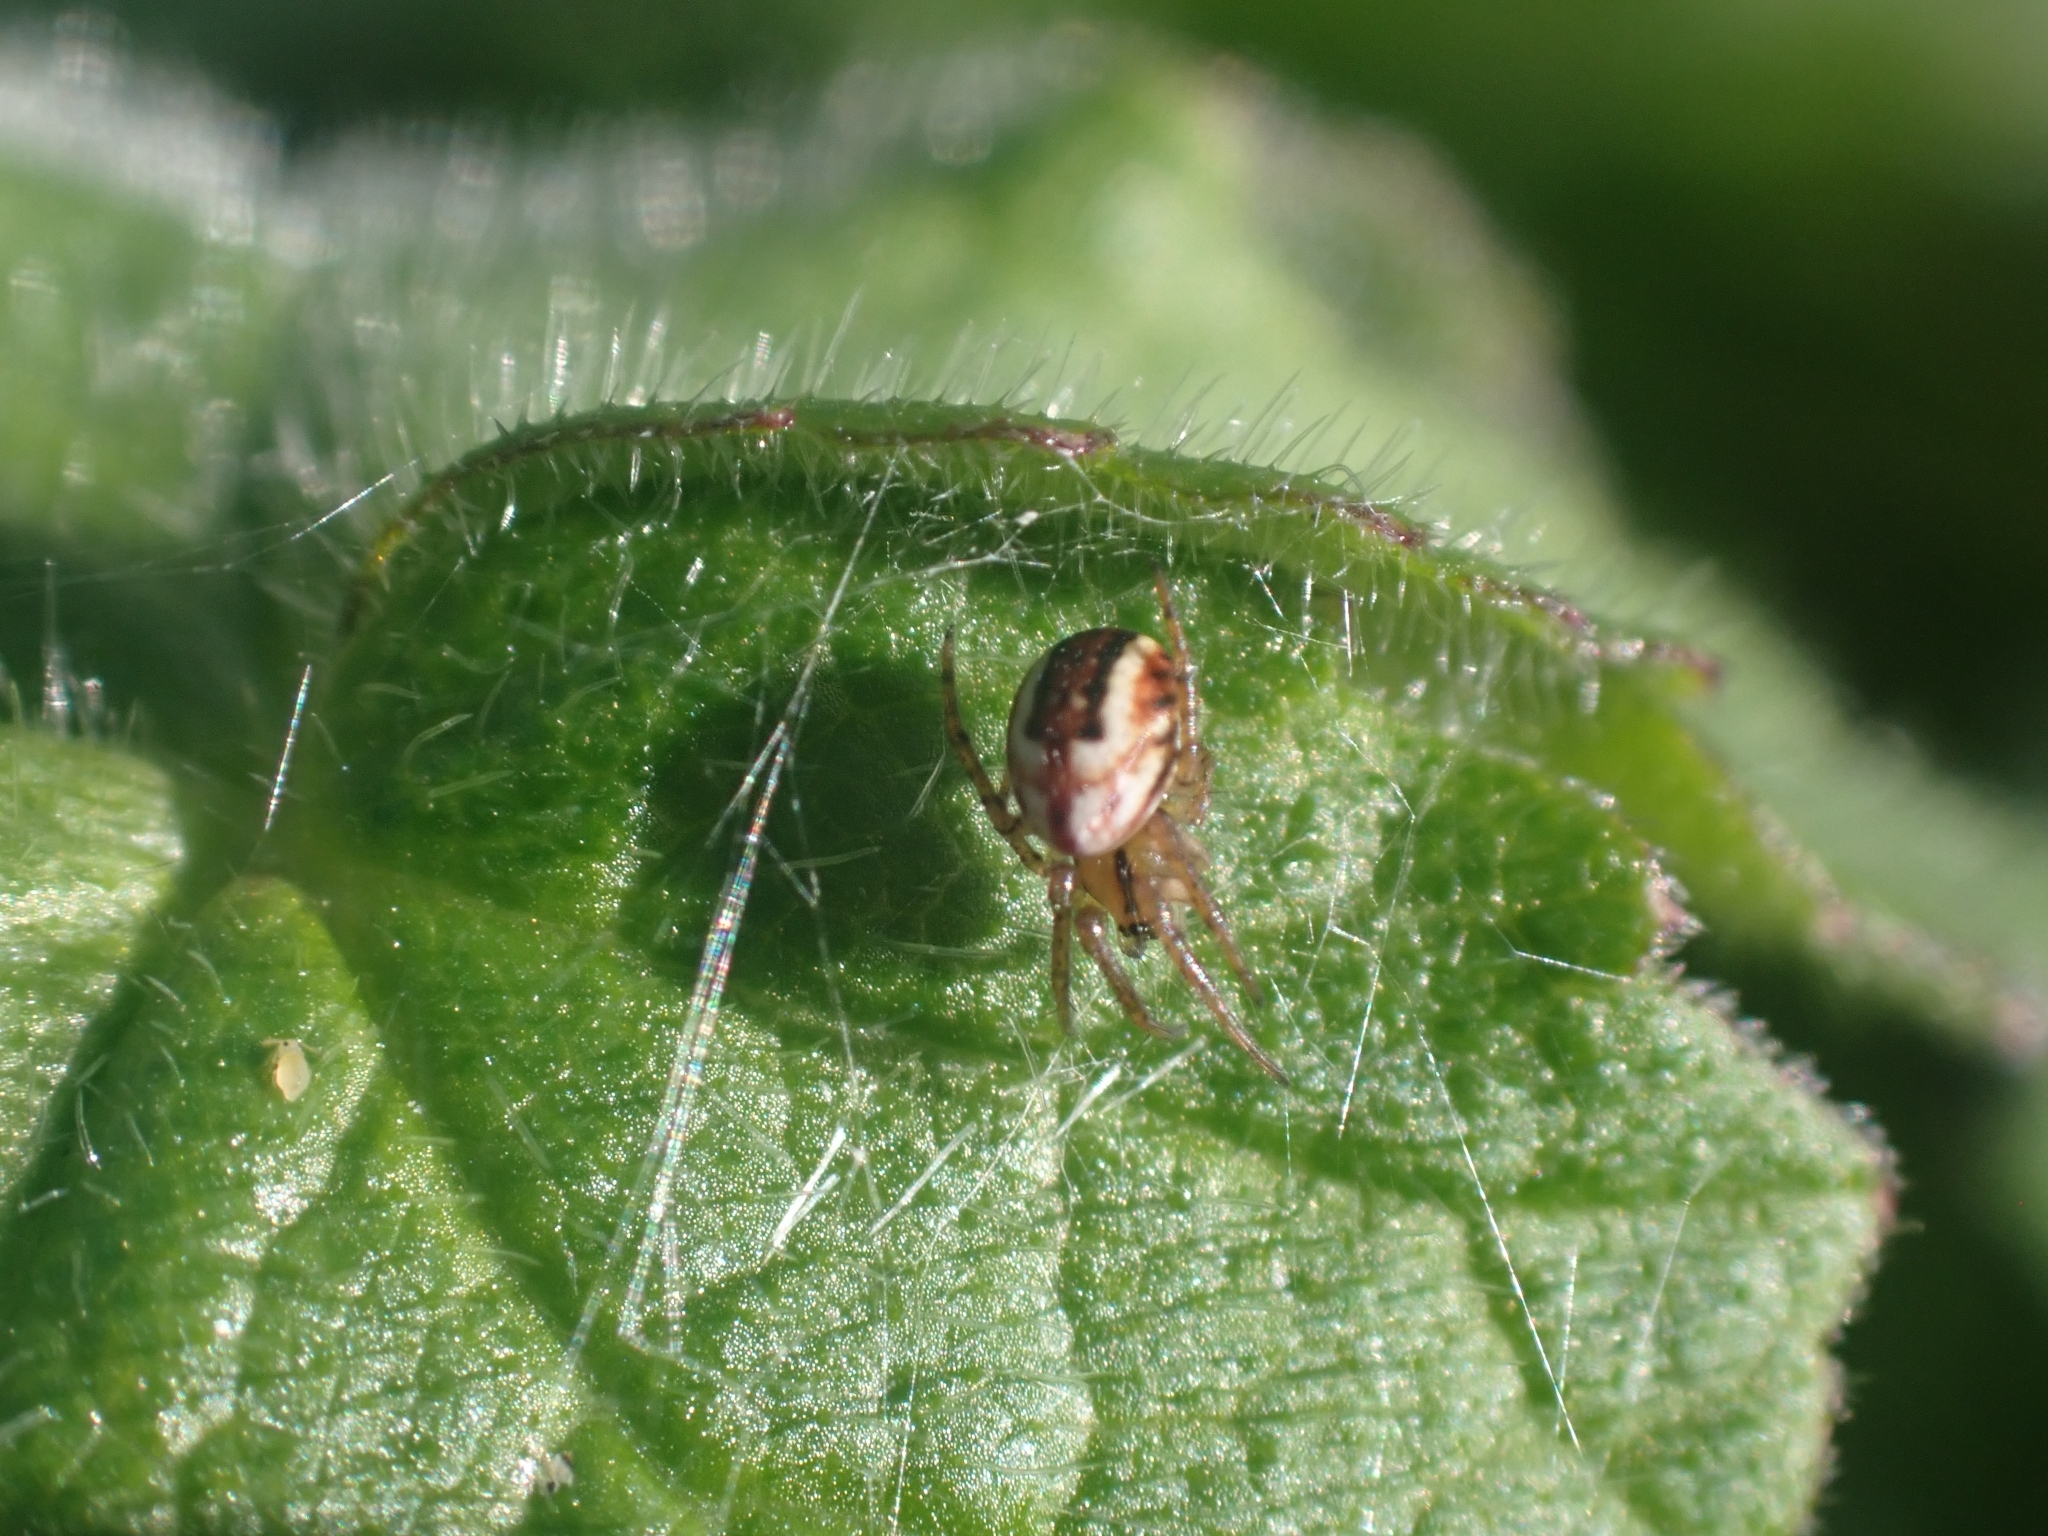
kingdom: Animalia
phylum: Arthropoda
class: Arachnida
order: Araneae
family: Araneidae
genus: Mangora
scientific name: Mangora acalypha
